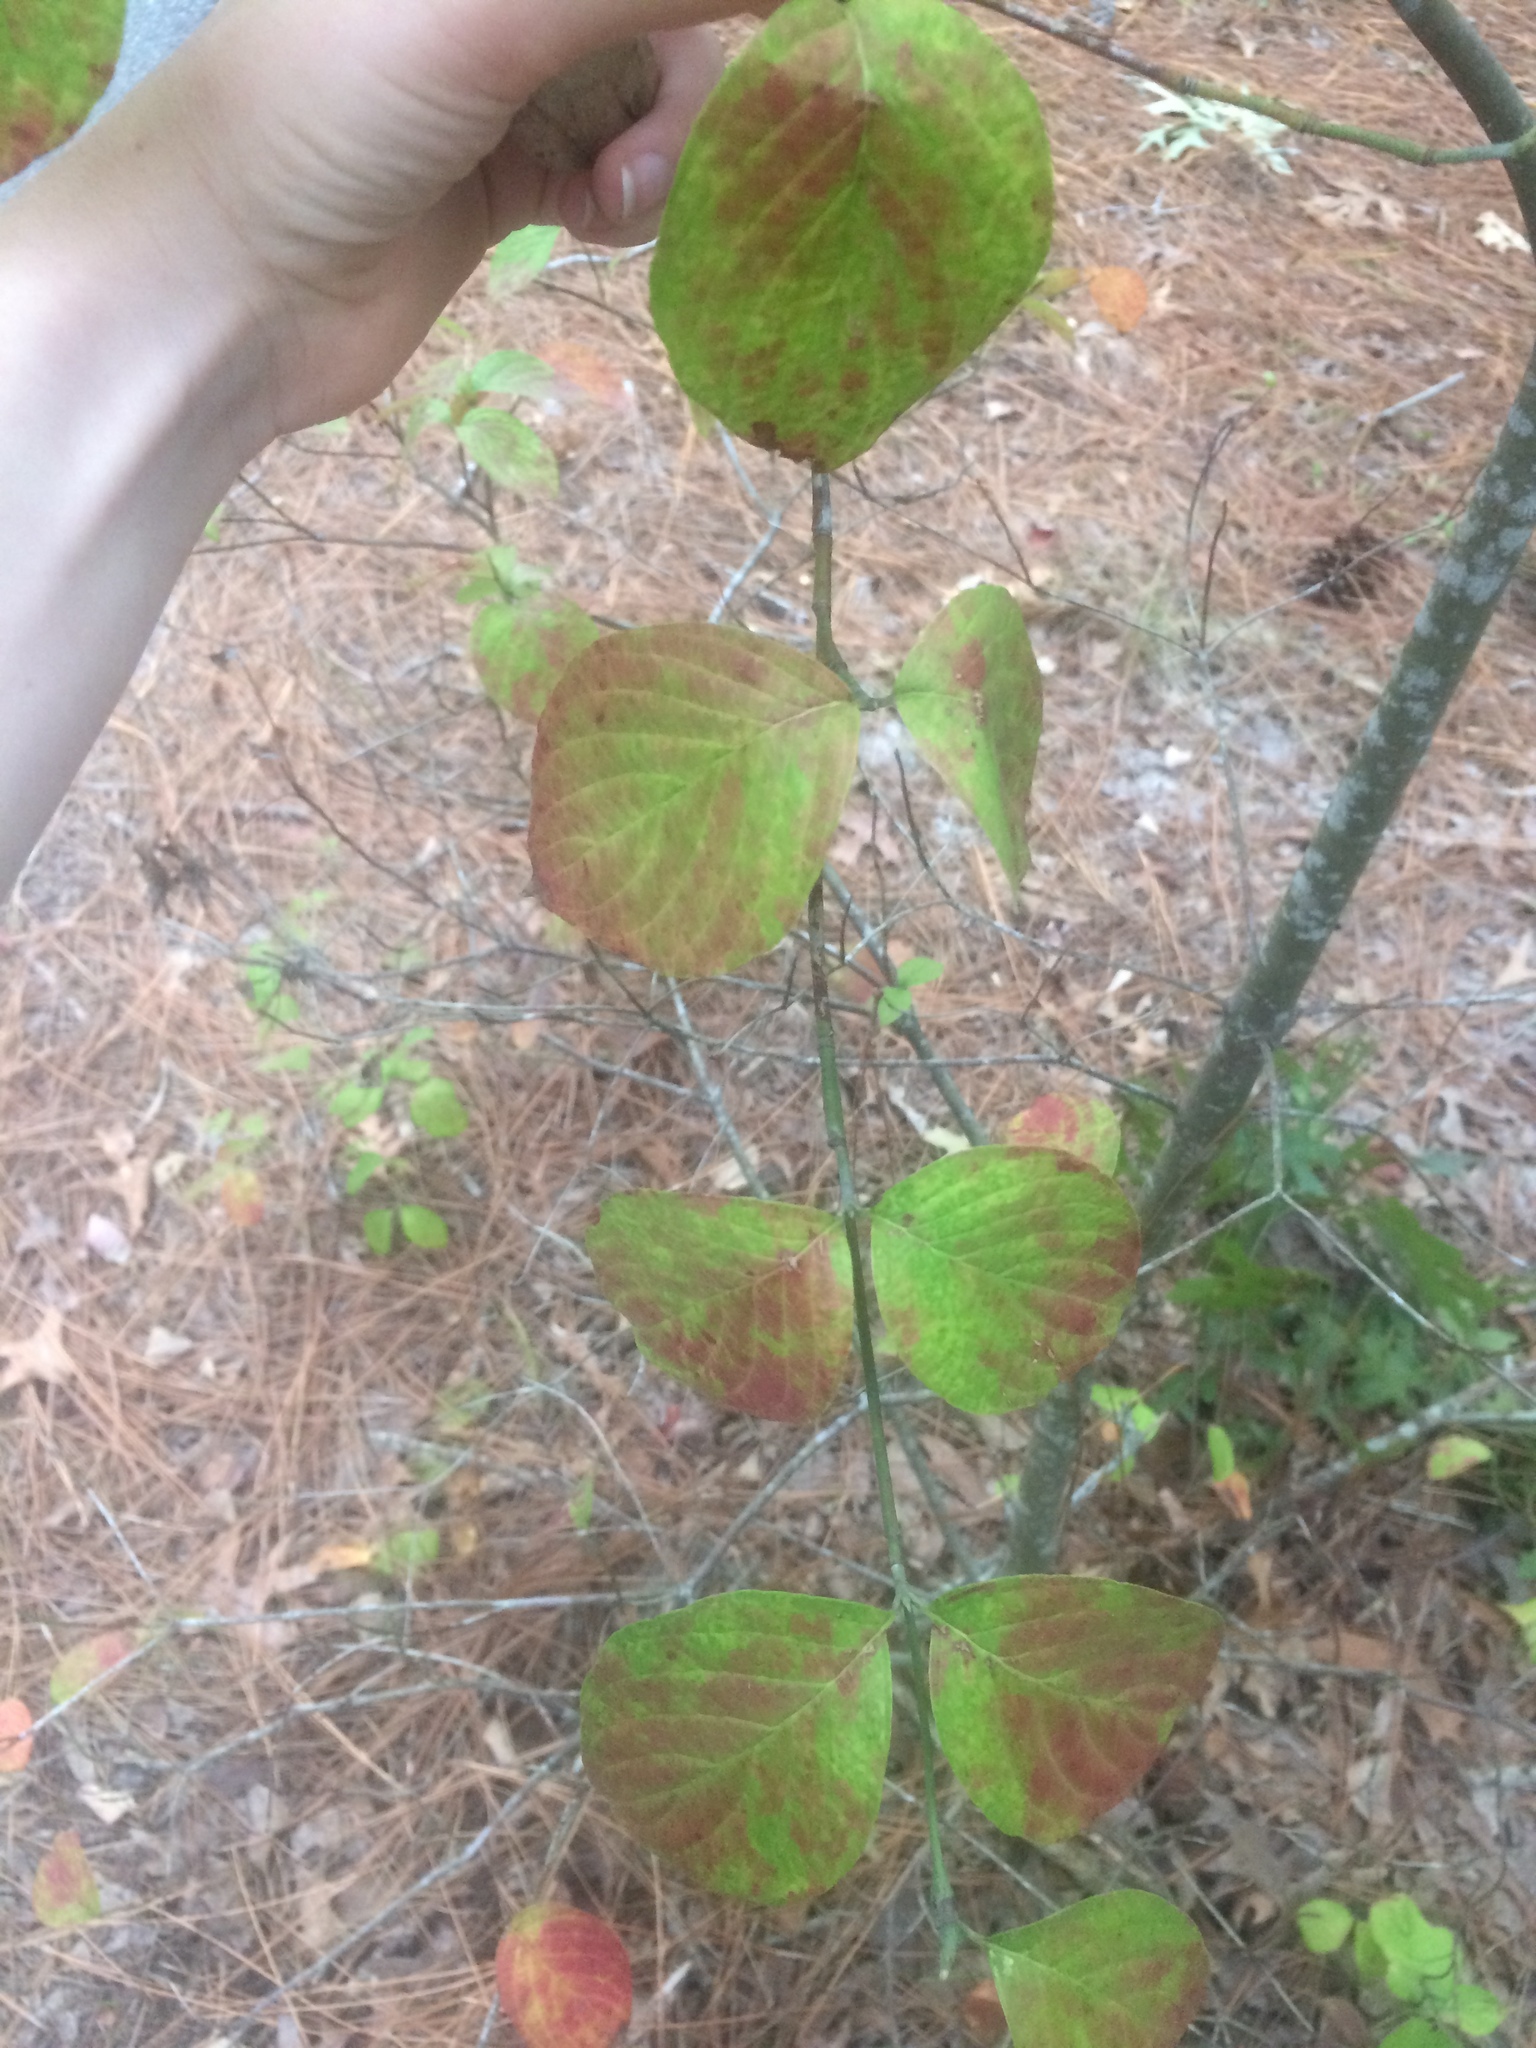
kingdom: Plantae
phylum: Tracheophyta
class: Magnoliopsida
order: Cornales
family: Cornaceae
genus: Cornus
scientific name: Cornus florida
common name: Flowering dogwood
